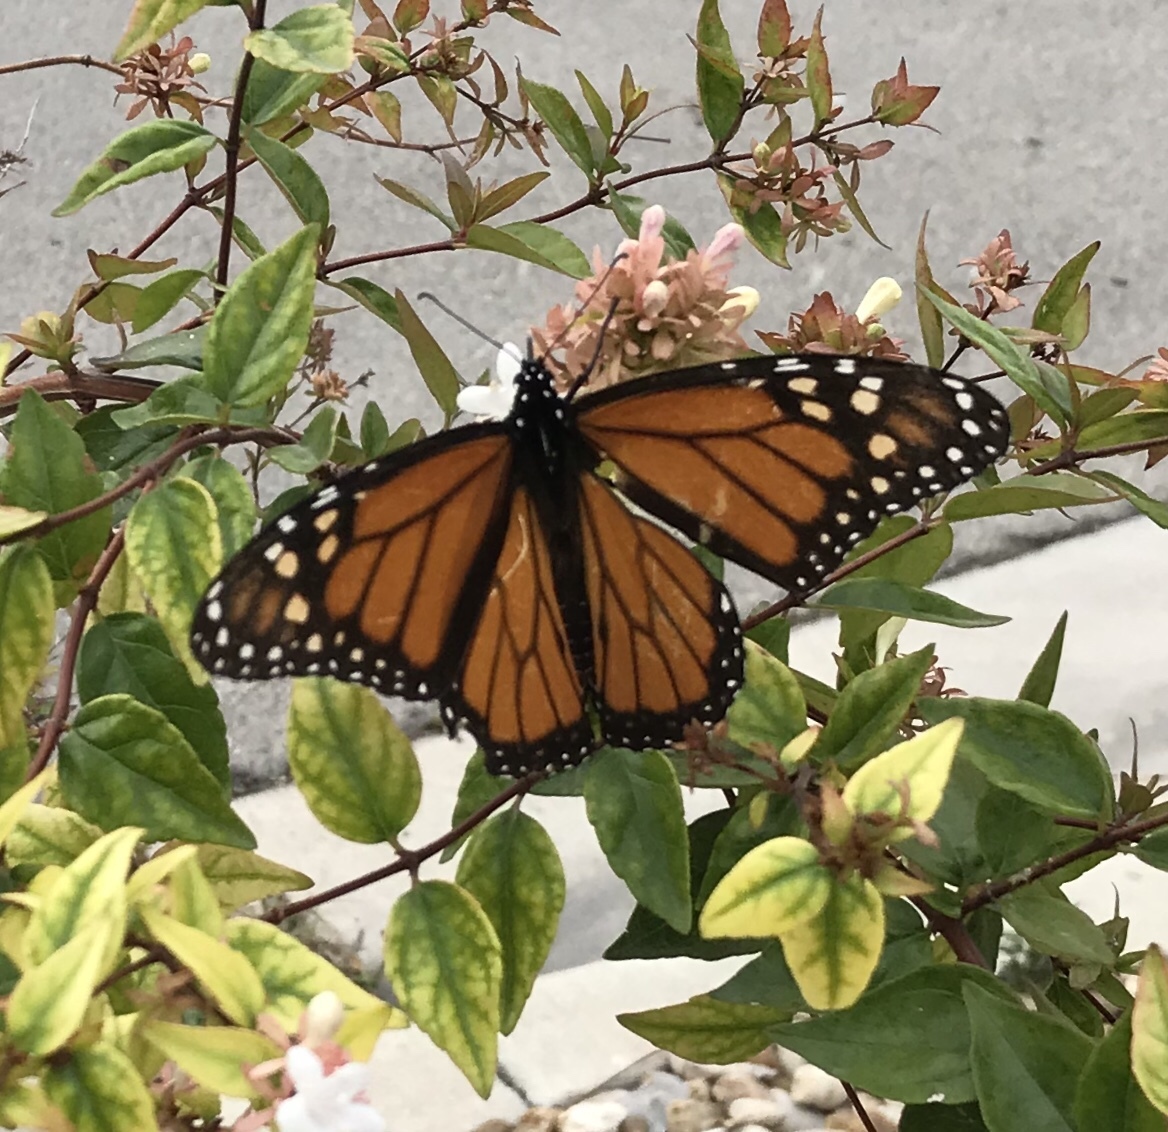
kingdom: Animalia
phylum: Arthropoda
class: Insecta
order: Lepidoptera
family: Nymphalidae
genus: Danaus
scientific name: Danaus plexippus
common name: Monarch
